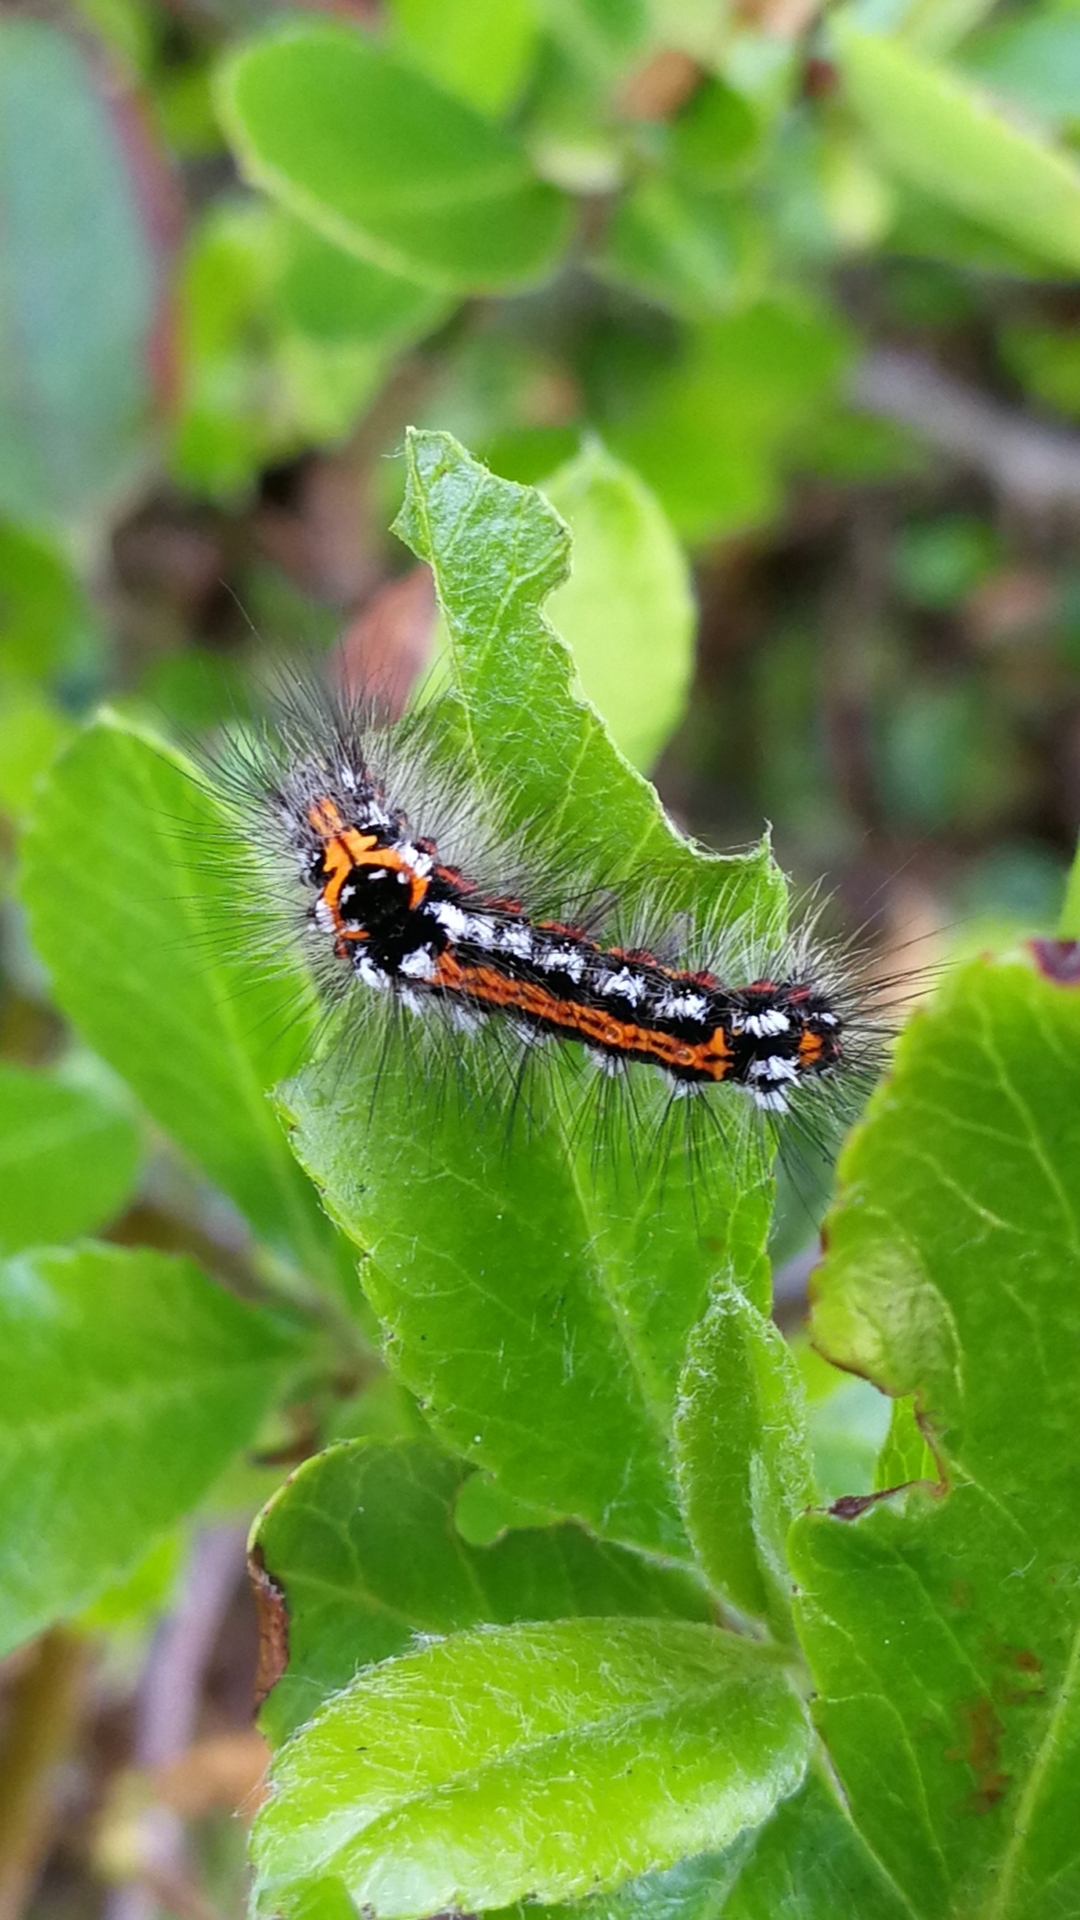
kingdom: Animalia
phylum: Arthropoda
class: Insecta
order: Lepidoptera
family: Erebidae
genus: Sphrageidus
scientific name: Sphrageidus similis
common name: Yellow-tail
